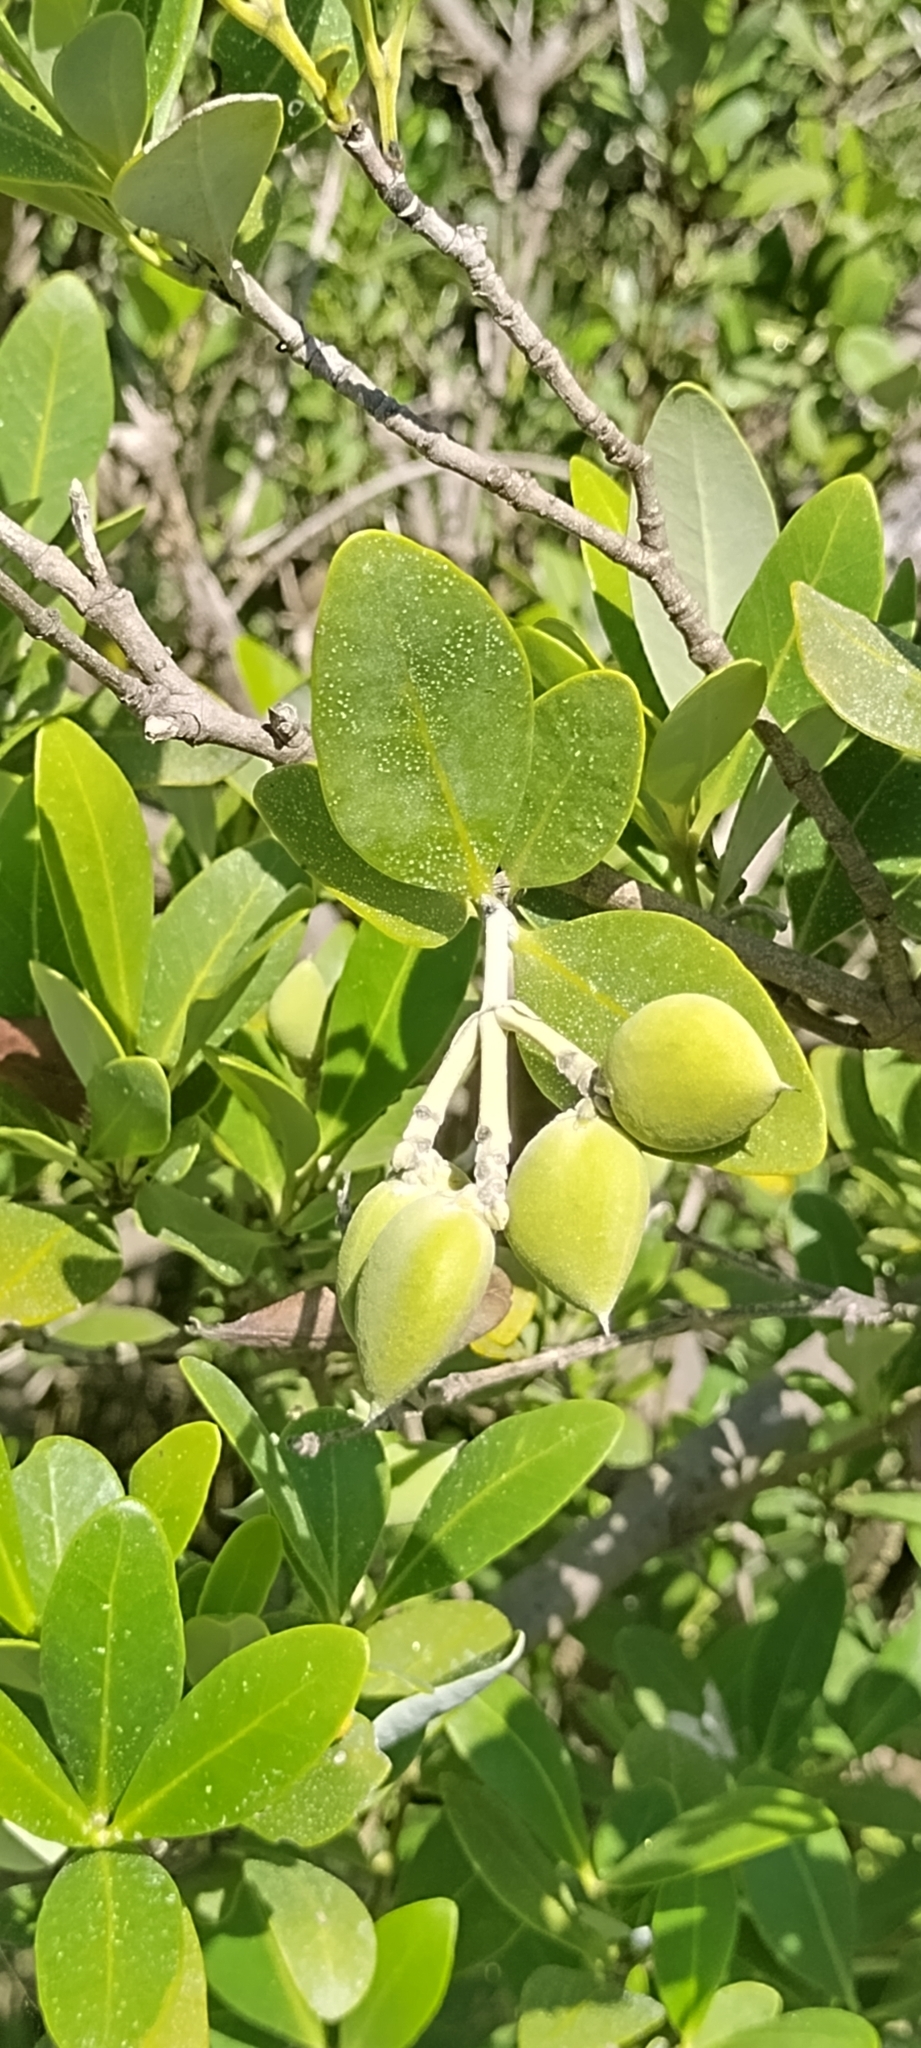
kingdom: Plantae
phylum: Tracheophyta
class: Magnoliopsida
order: Lamiales
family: Acanthaceae
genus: Avicennia
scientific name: Avicennia germinans
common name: Black mangrove
